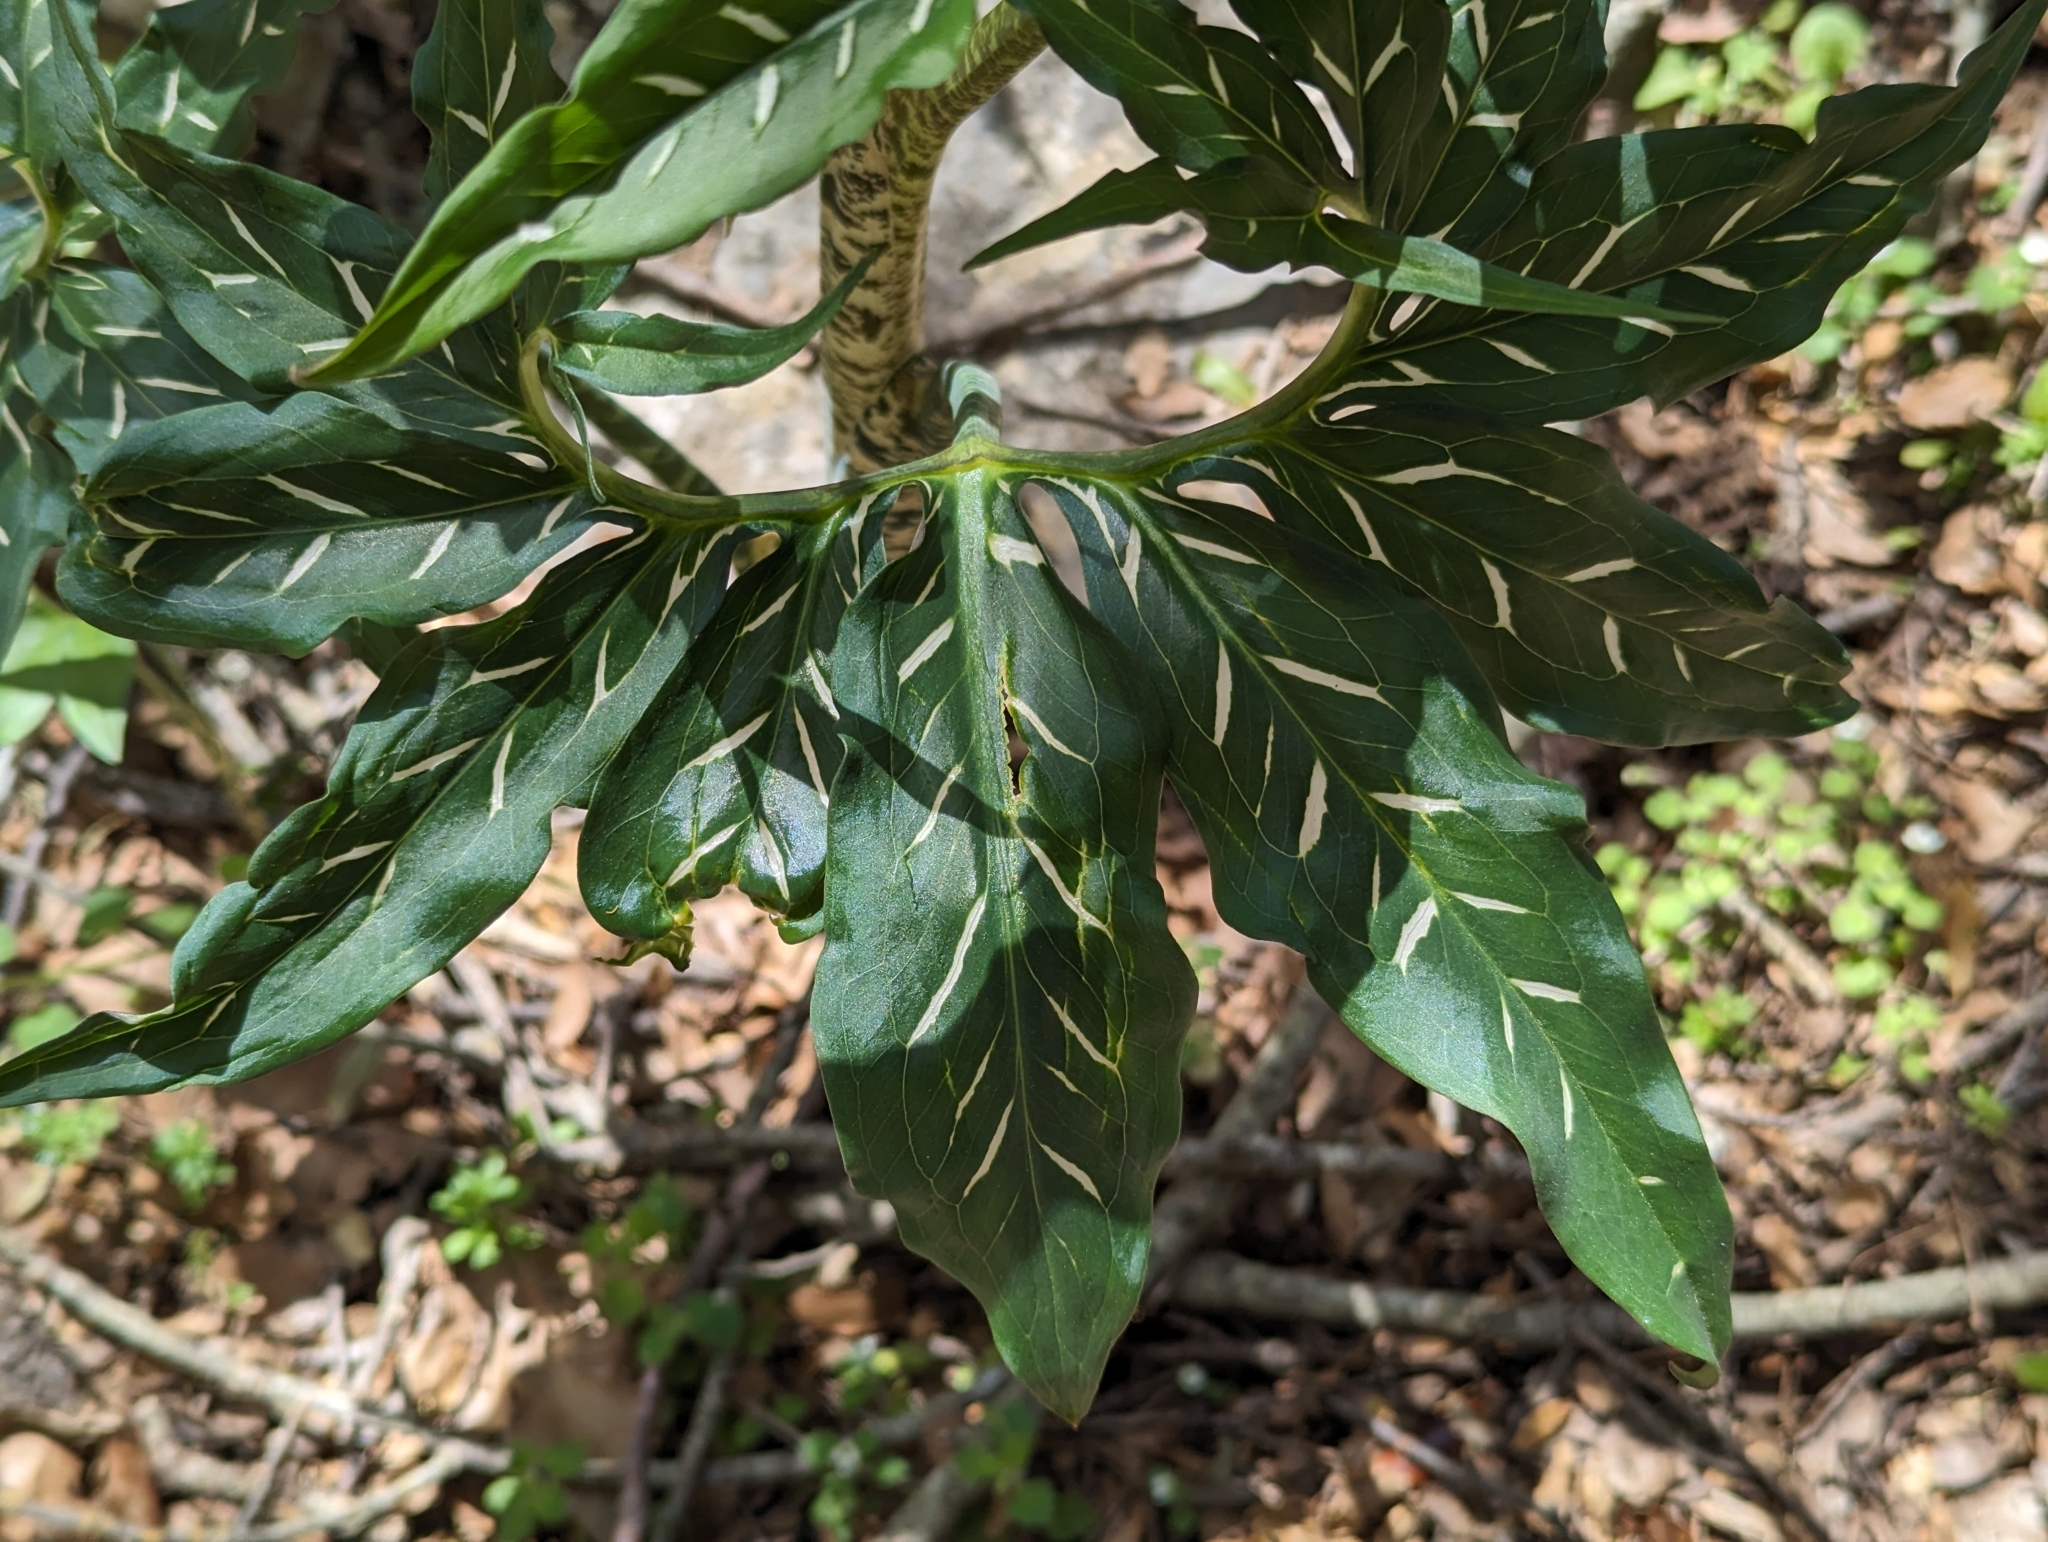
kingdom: Plantae
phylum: Tracheophyta
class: Liliopsida
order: Alismatales
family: Araceae
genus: Dracunculus
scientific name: Dracunculus vulgaris
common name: Dragon arum
